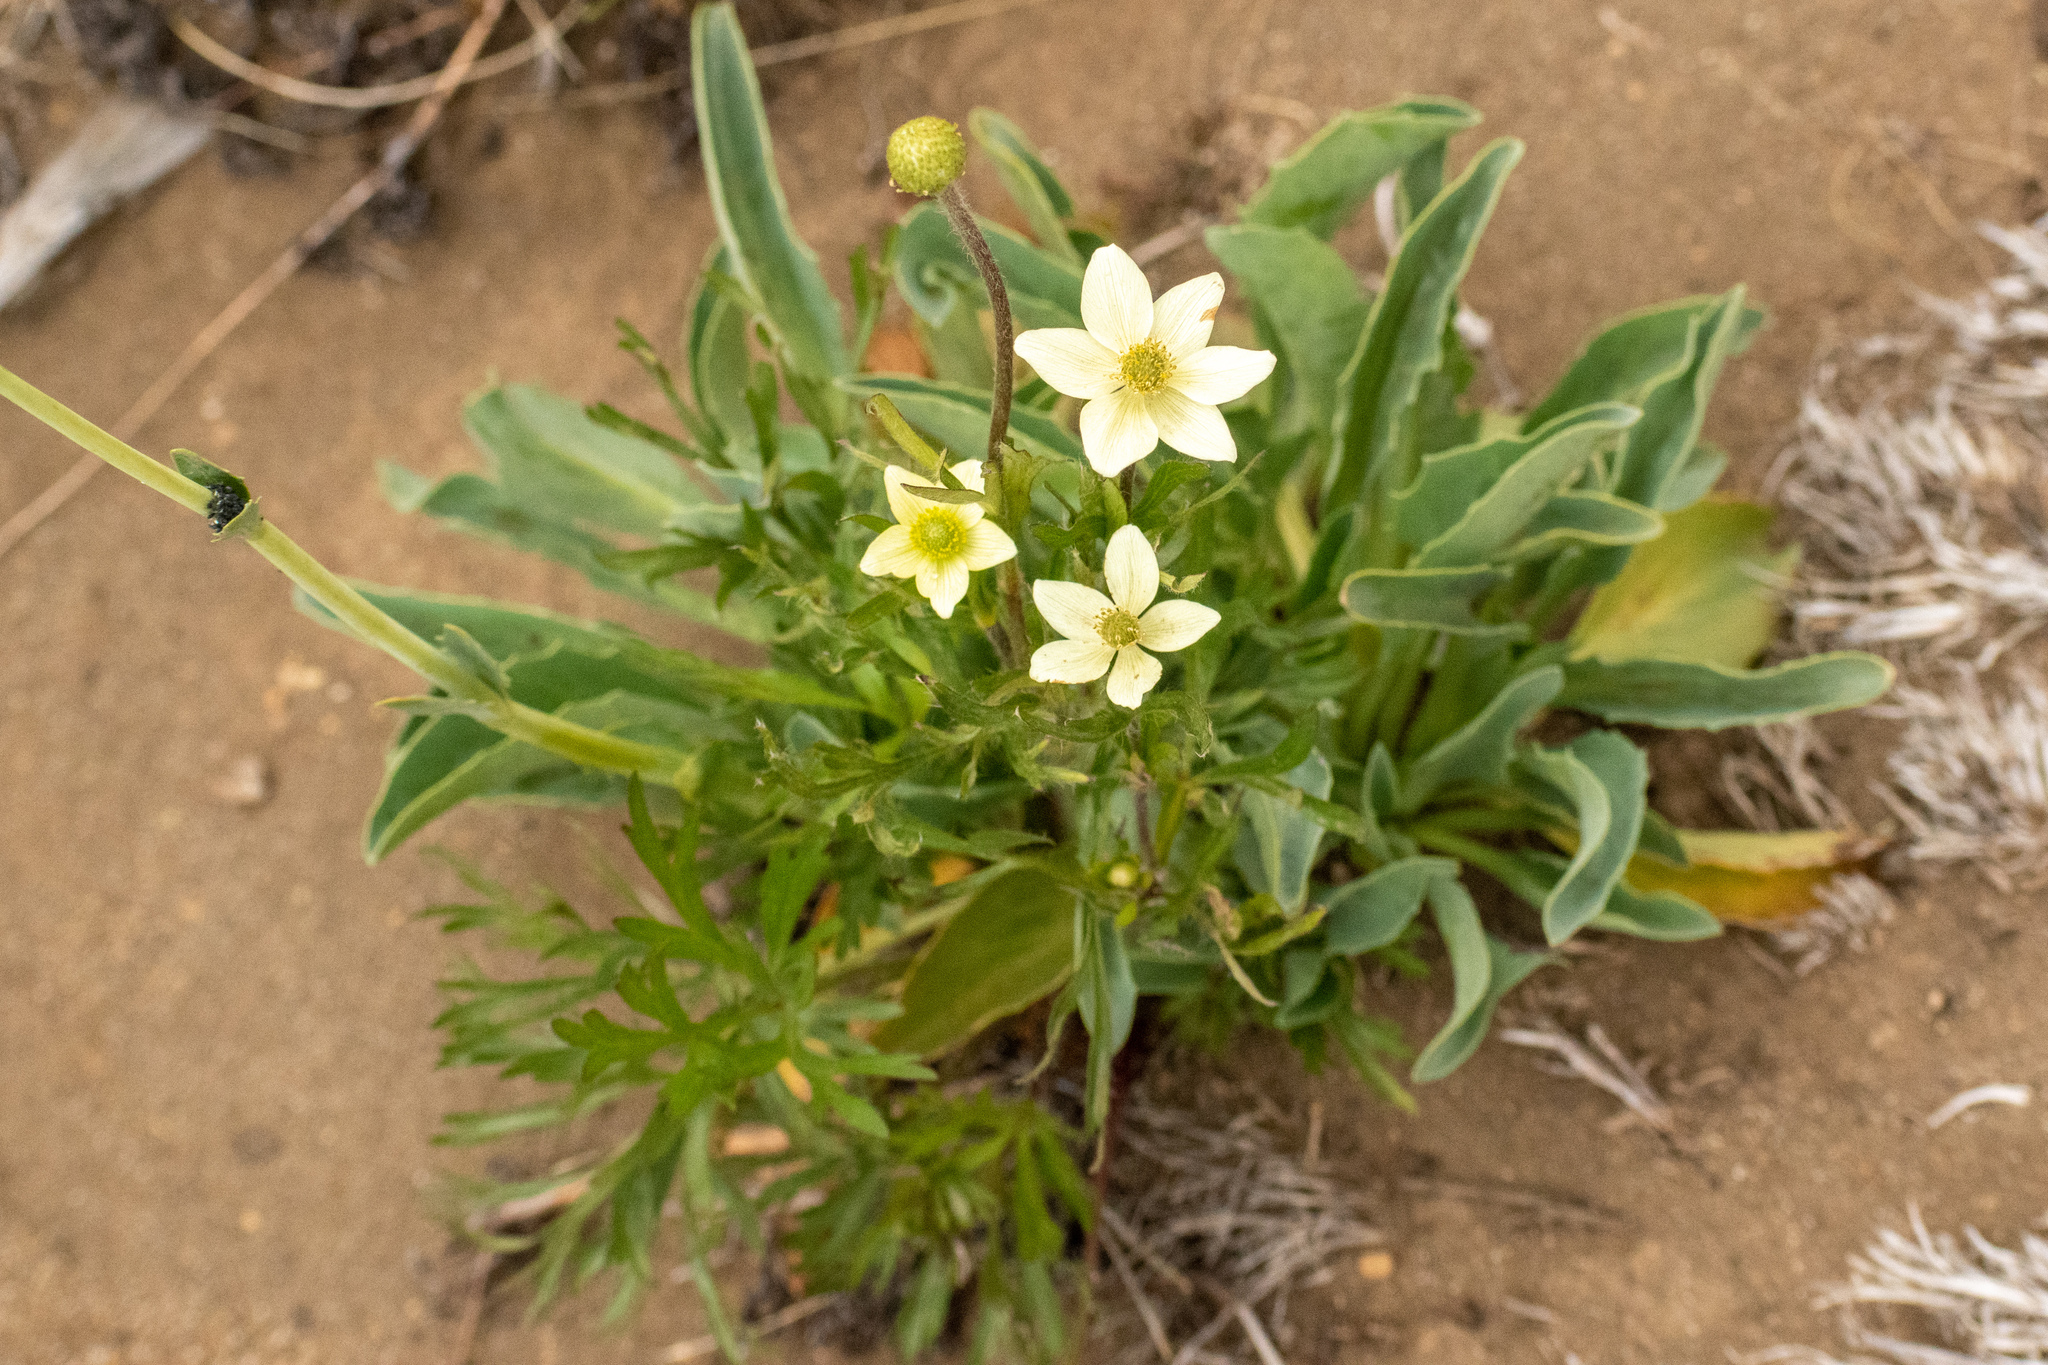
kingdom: Plantae
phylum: Tracheophyta
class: Magnoliopsida
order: Ranunculales
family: Ranunculaceae
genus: Anemone
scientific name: Anemone multifida
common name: Bird's-foot anemone
